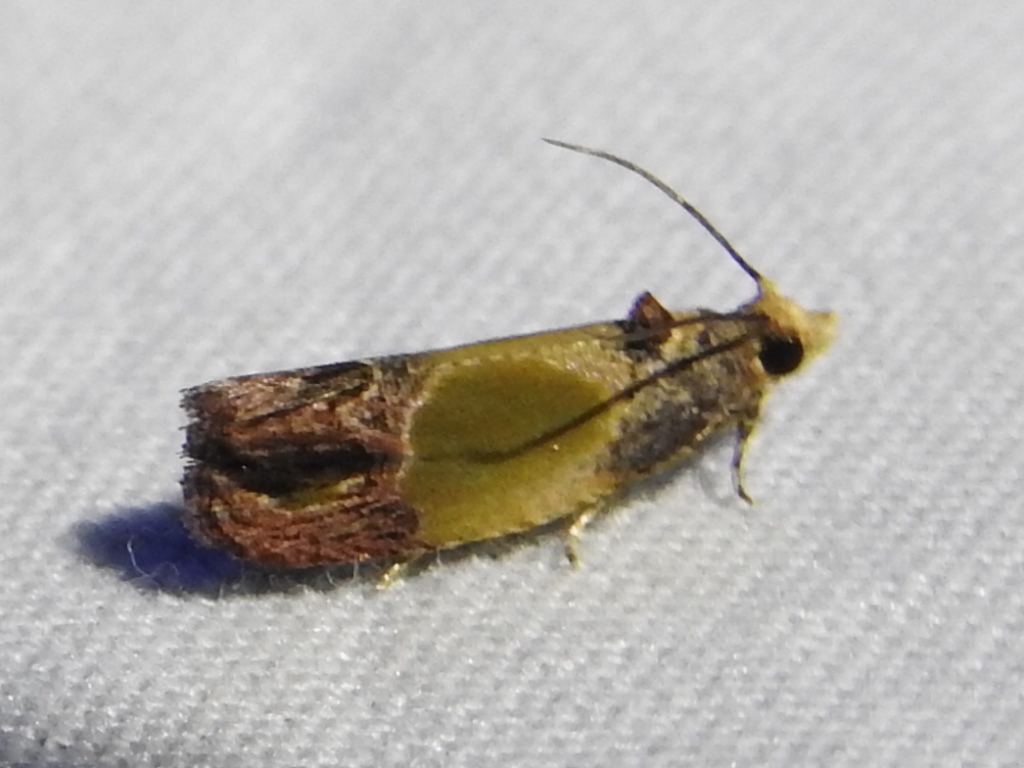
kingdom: Animalia
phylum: Arthropoda
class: Insecta
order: Lepidoptera
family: Tortricidae
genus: Eumarozia
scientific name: Eumarozia malachitana
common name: Sculptured moth
